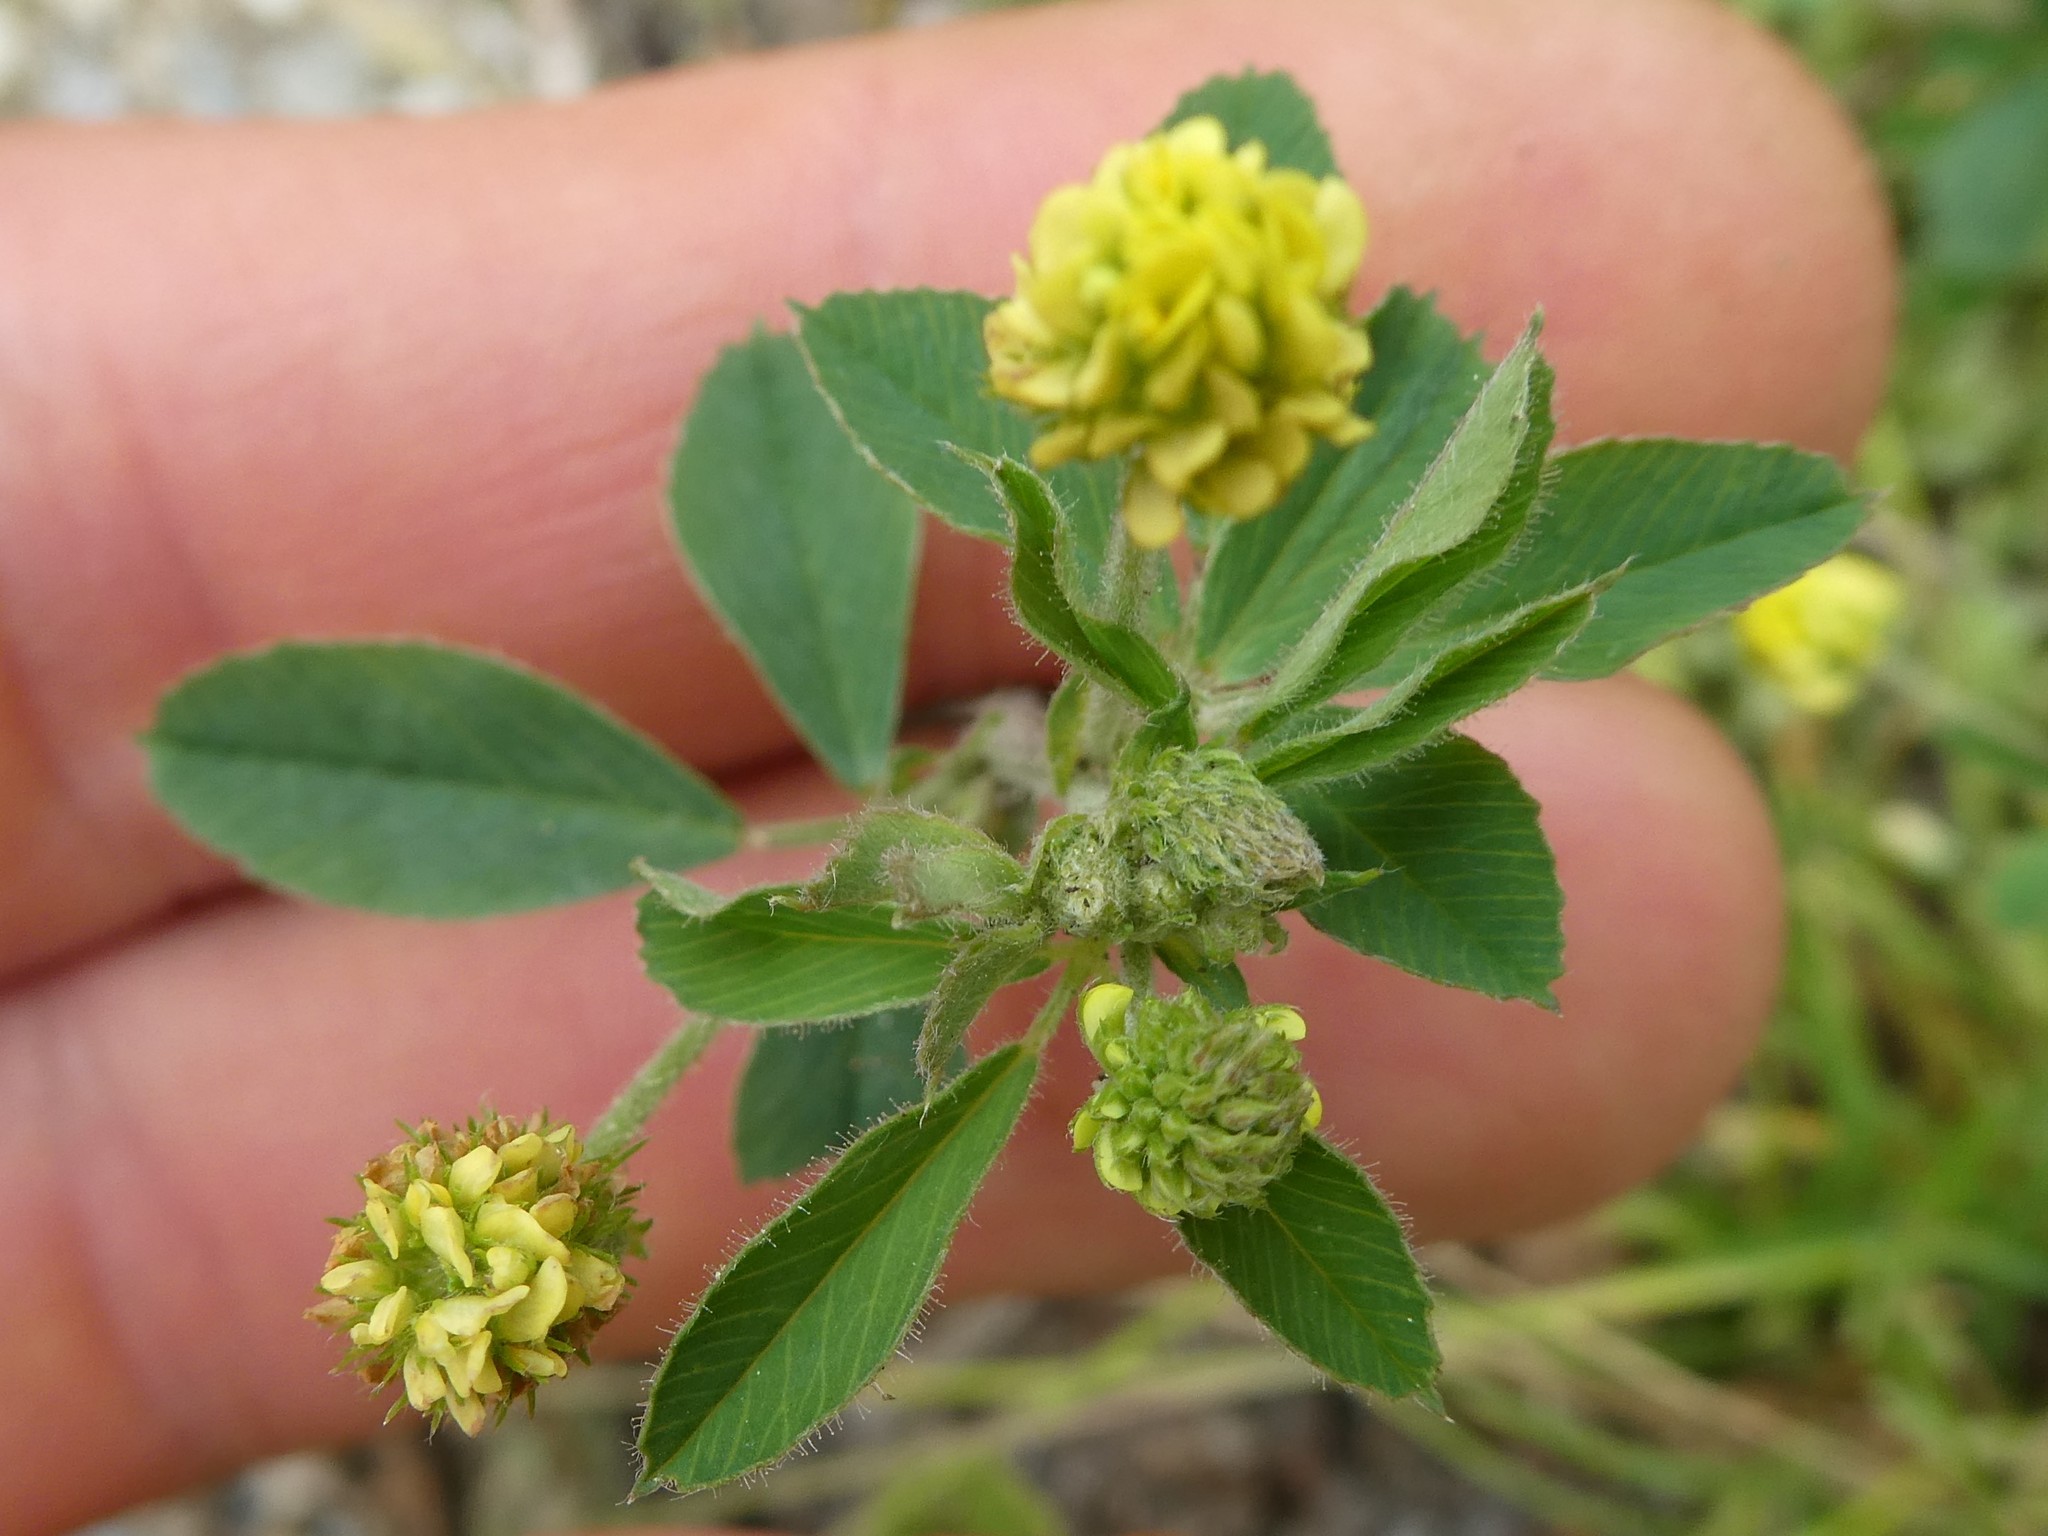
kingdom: Plantae
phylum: Tracheophyta
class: Magnoliopsida
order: Fabales
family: Fabaceae
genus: Medicago
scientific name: Medicago lupulina
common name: Black medick
